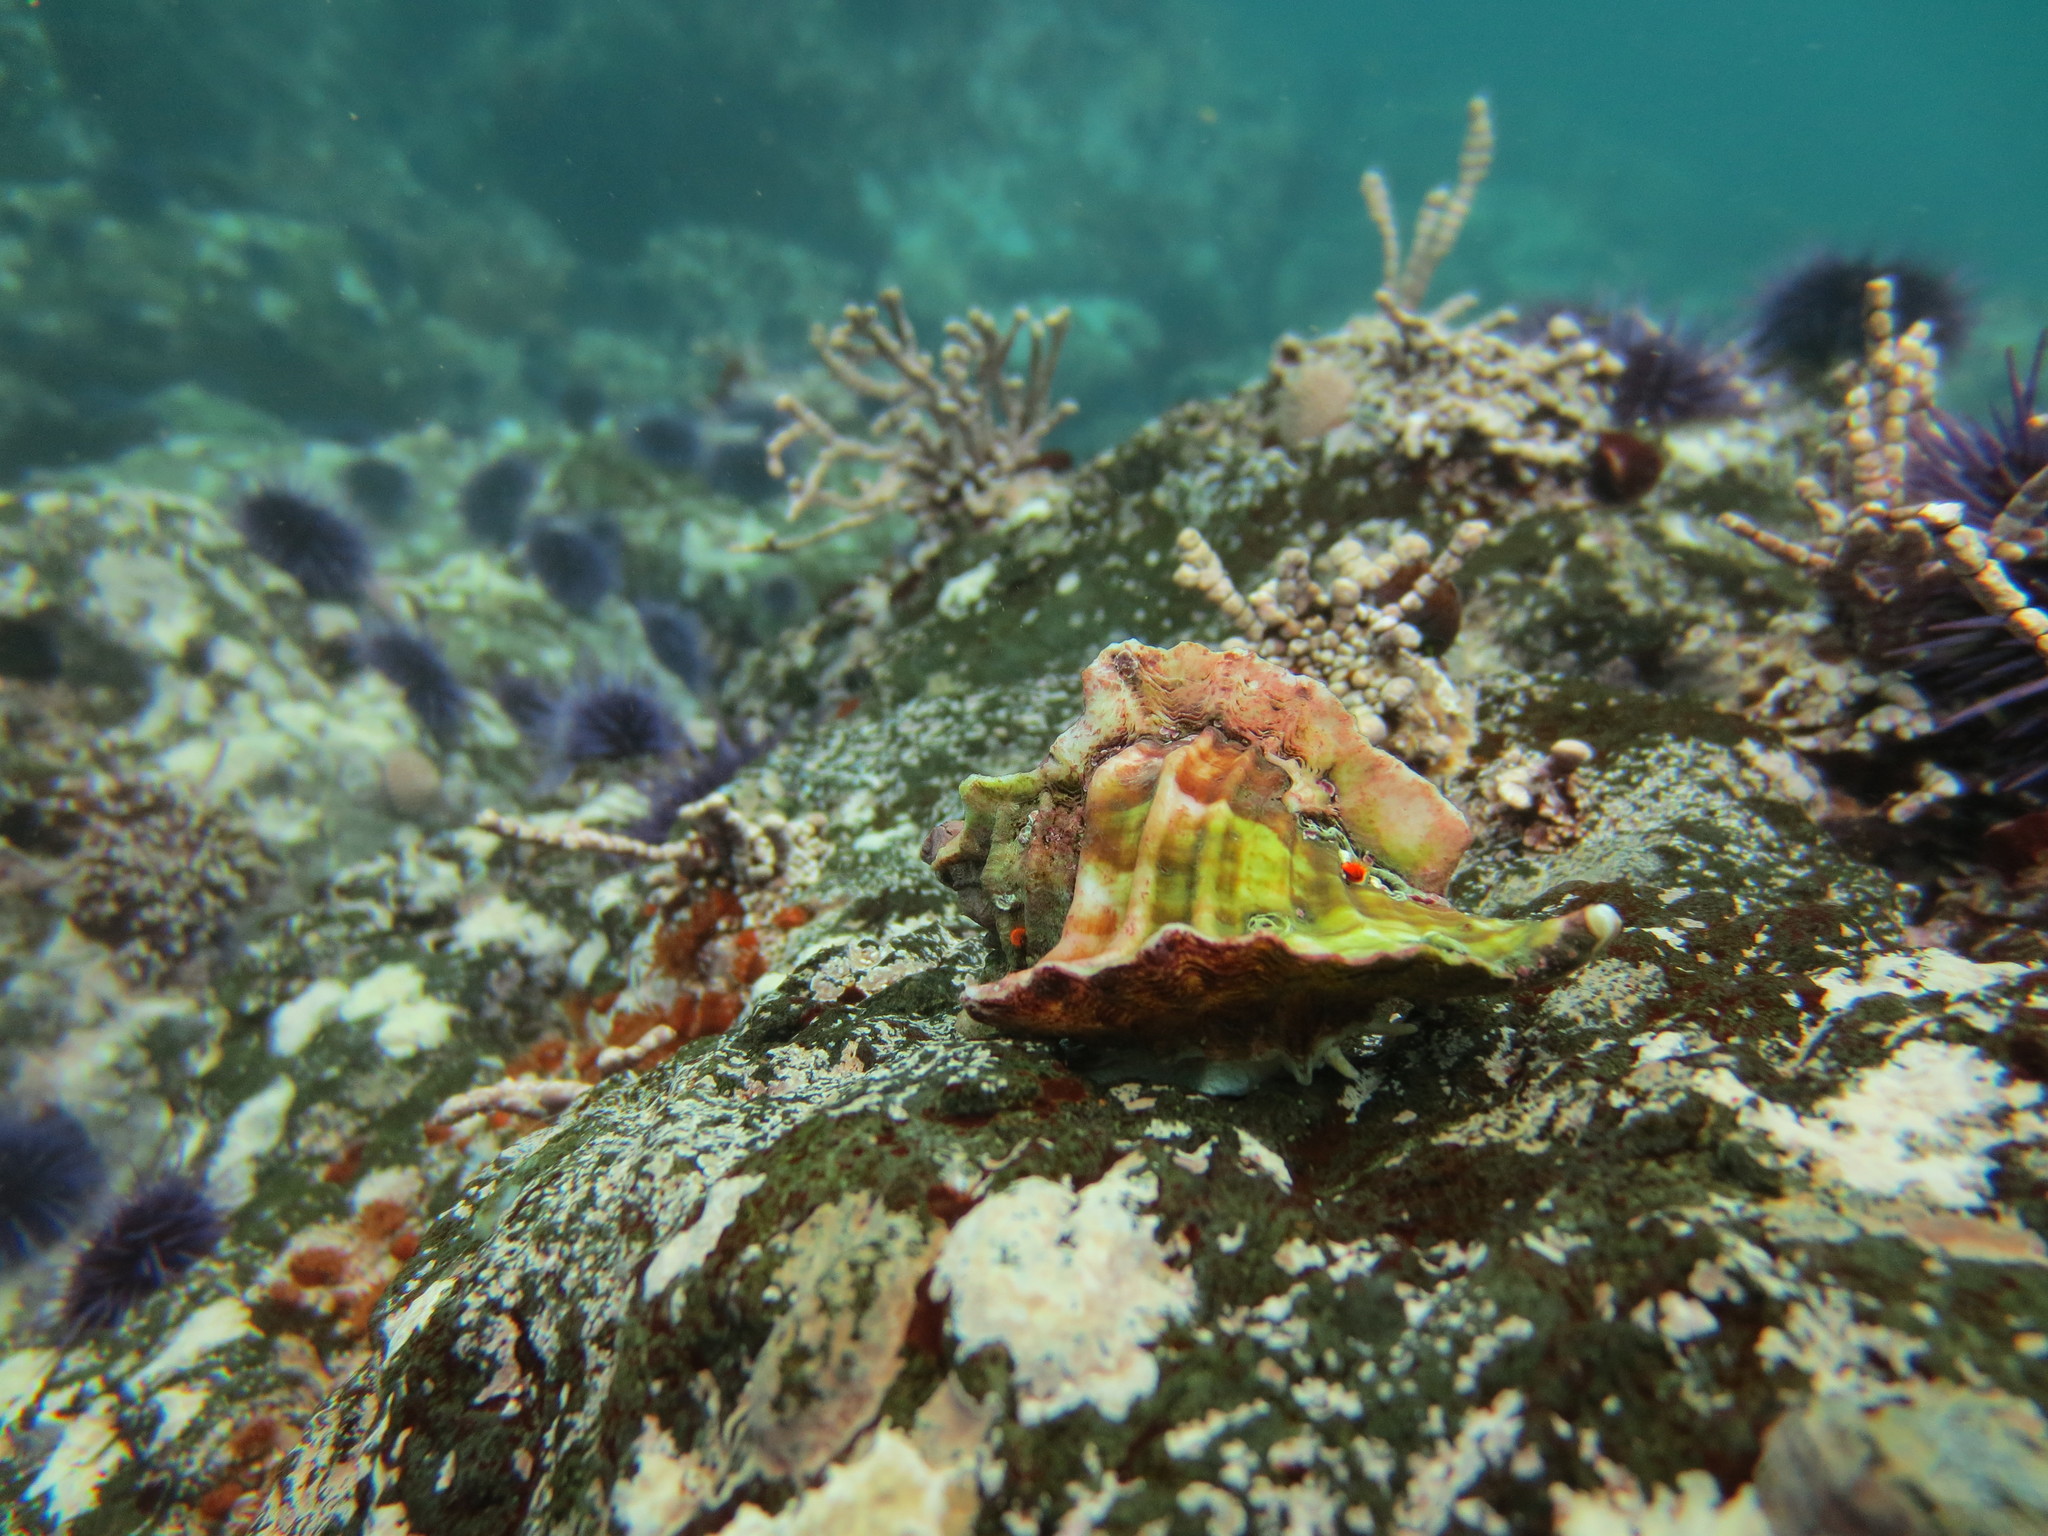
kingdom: Animalia
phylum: Mollusca
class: Gastropoda
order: Neogastropoda
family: Muricidae
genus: Ceratostoma
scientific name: Ceratostoma foliatum
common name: Foliate thorn purpura
